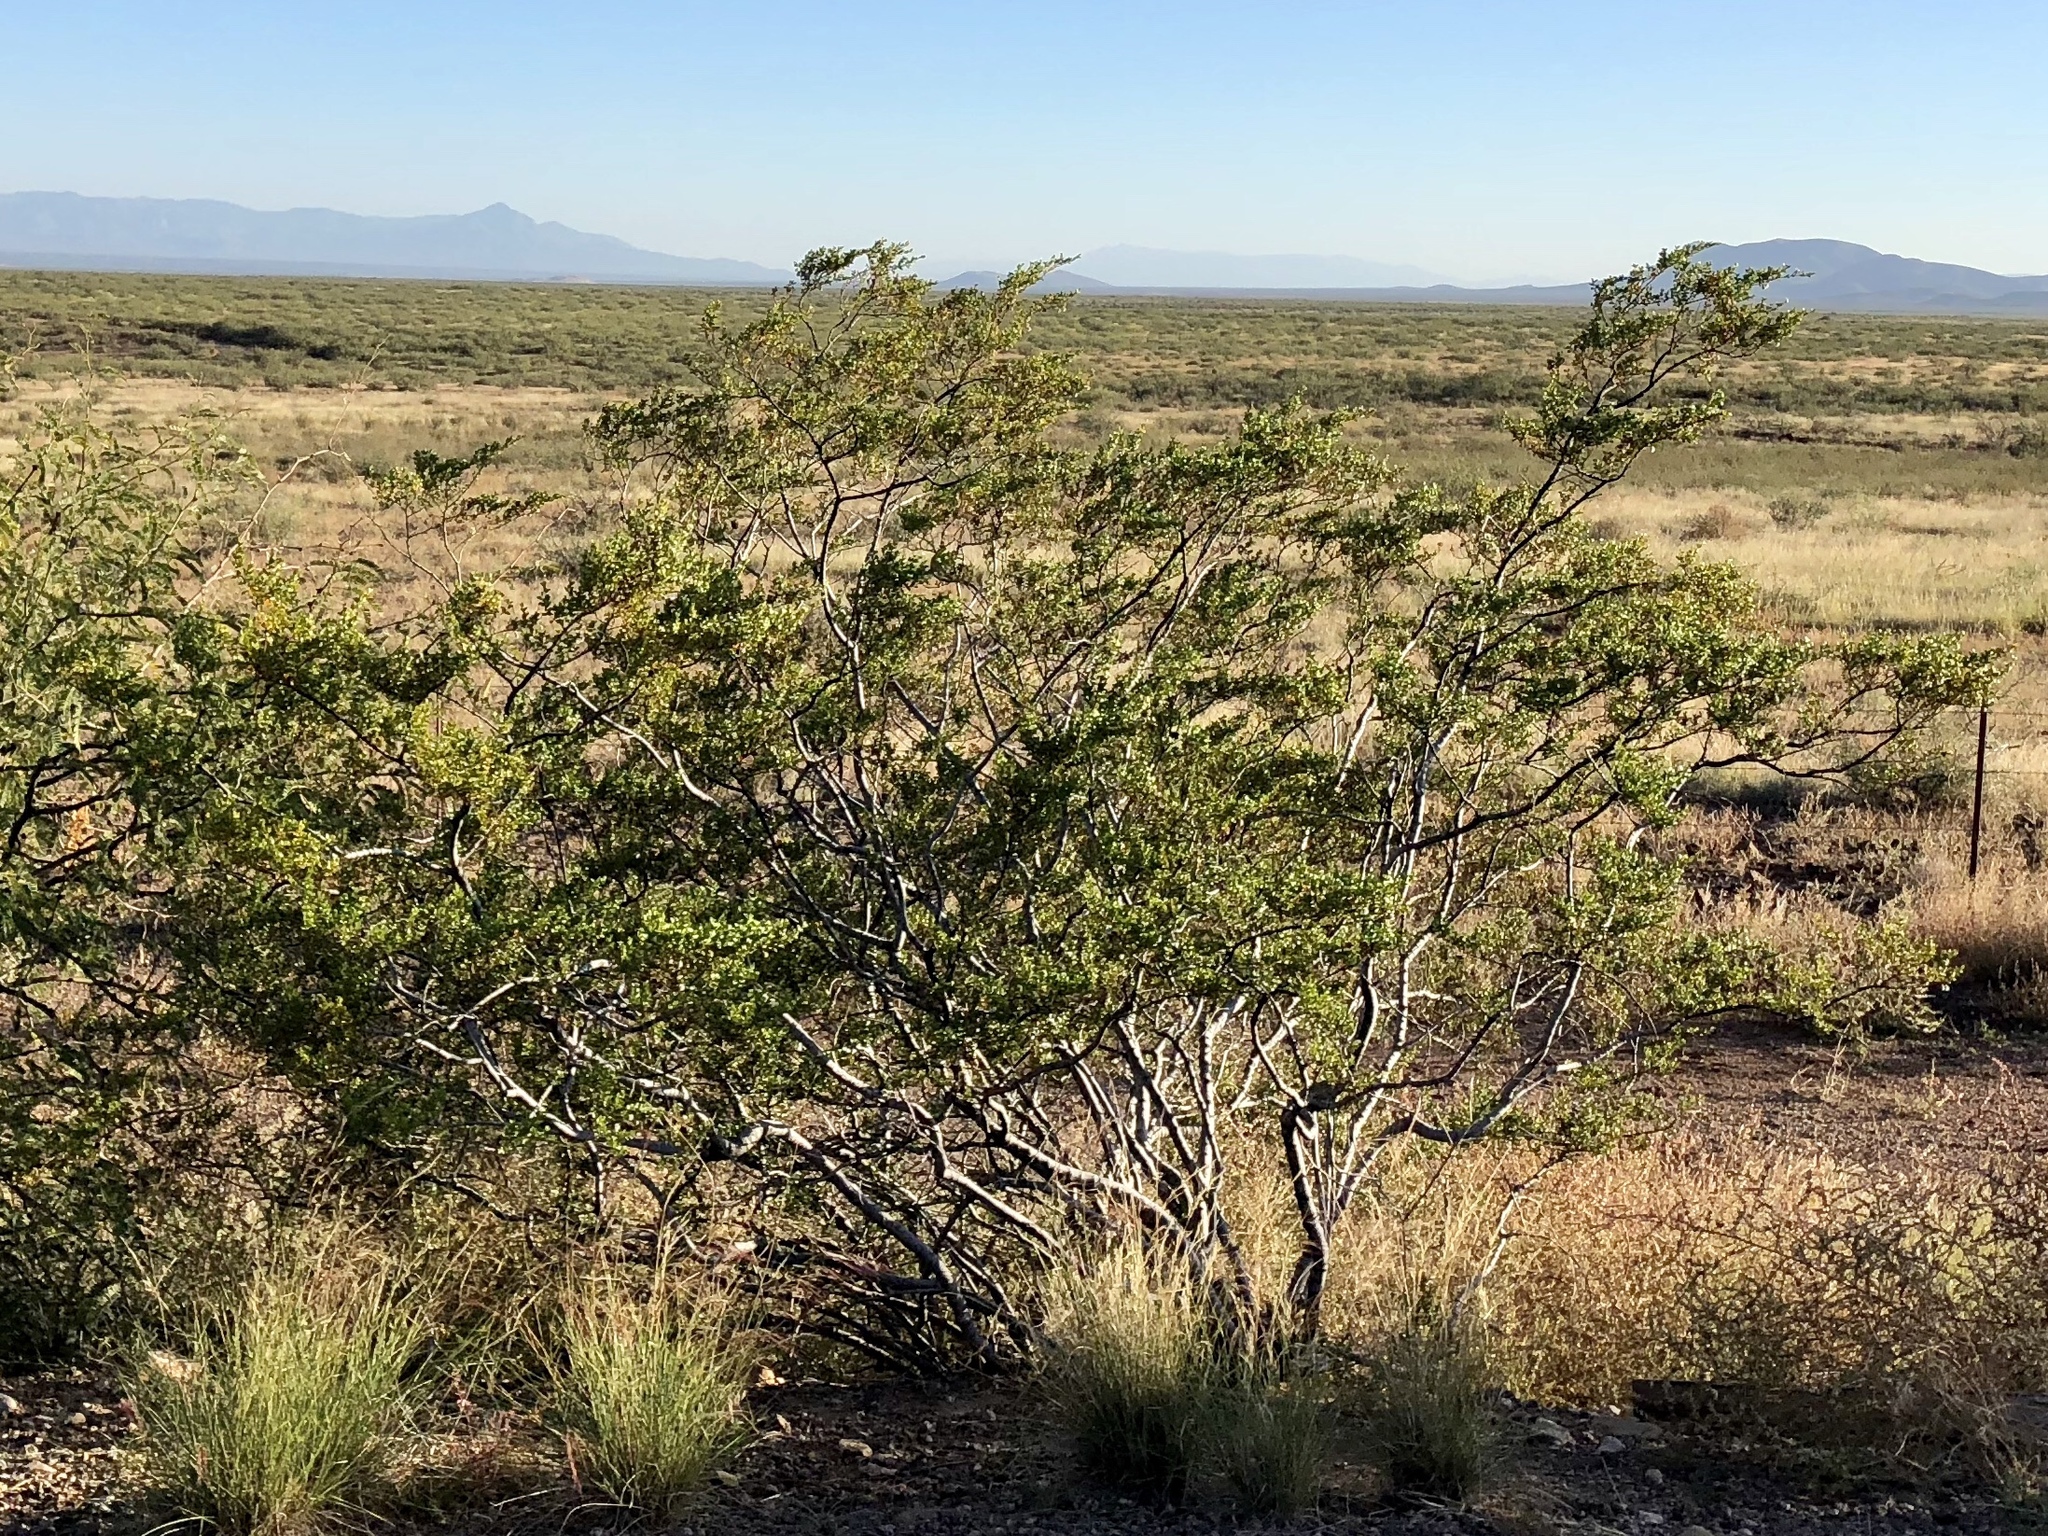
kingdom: Plantae
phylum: Tracheophyta
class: Magnoliopsida
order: Zygophyllales
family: Zygophyllaceae
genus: Larrea
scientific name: Larrea tridentata
